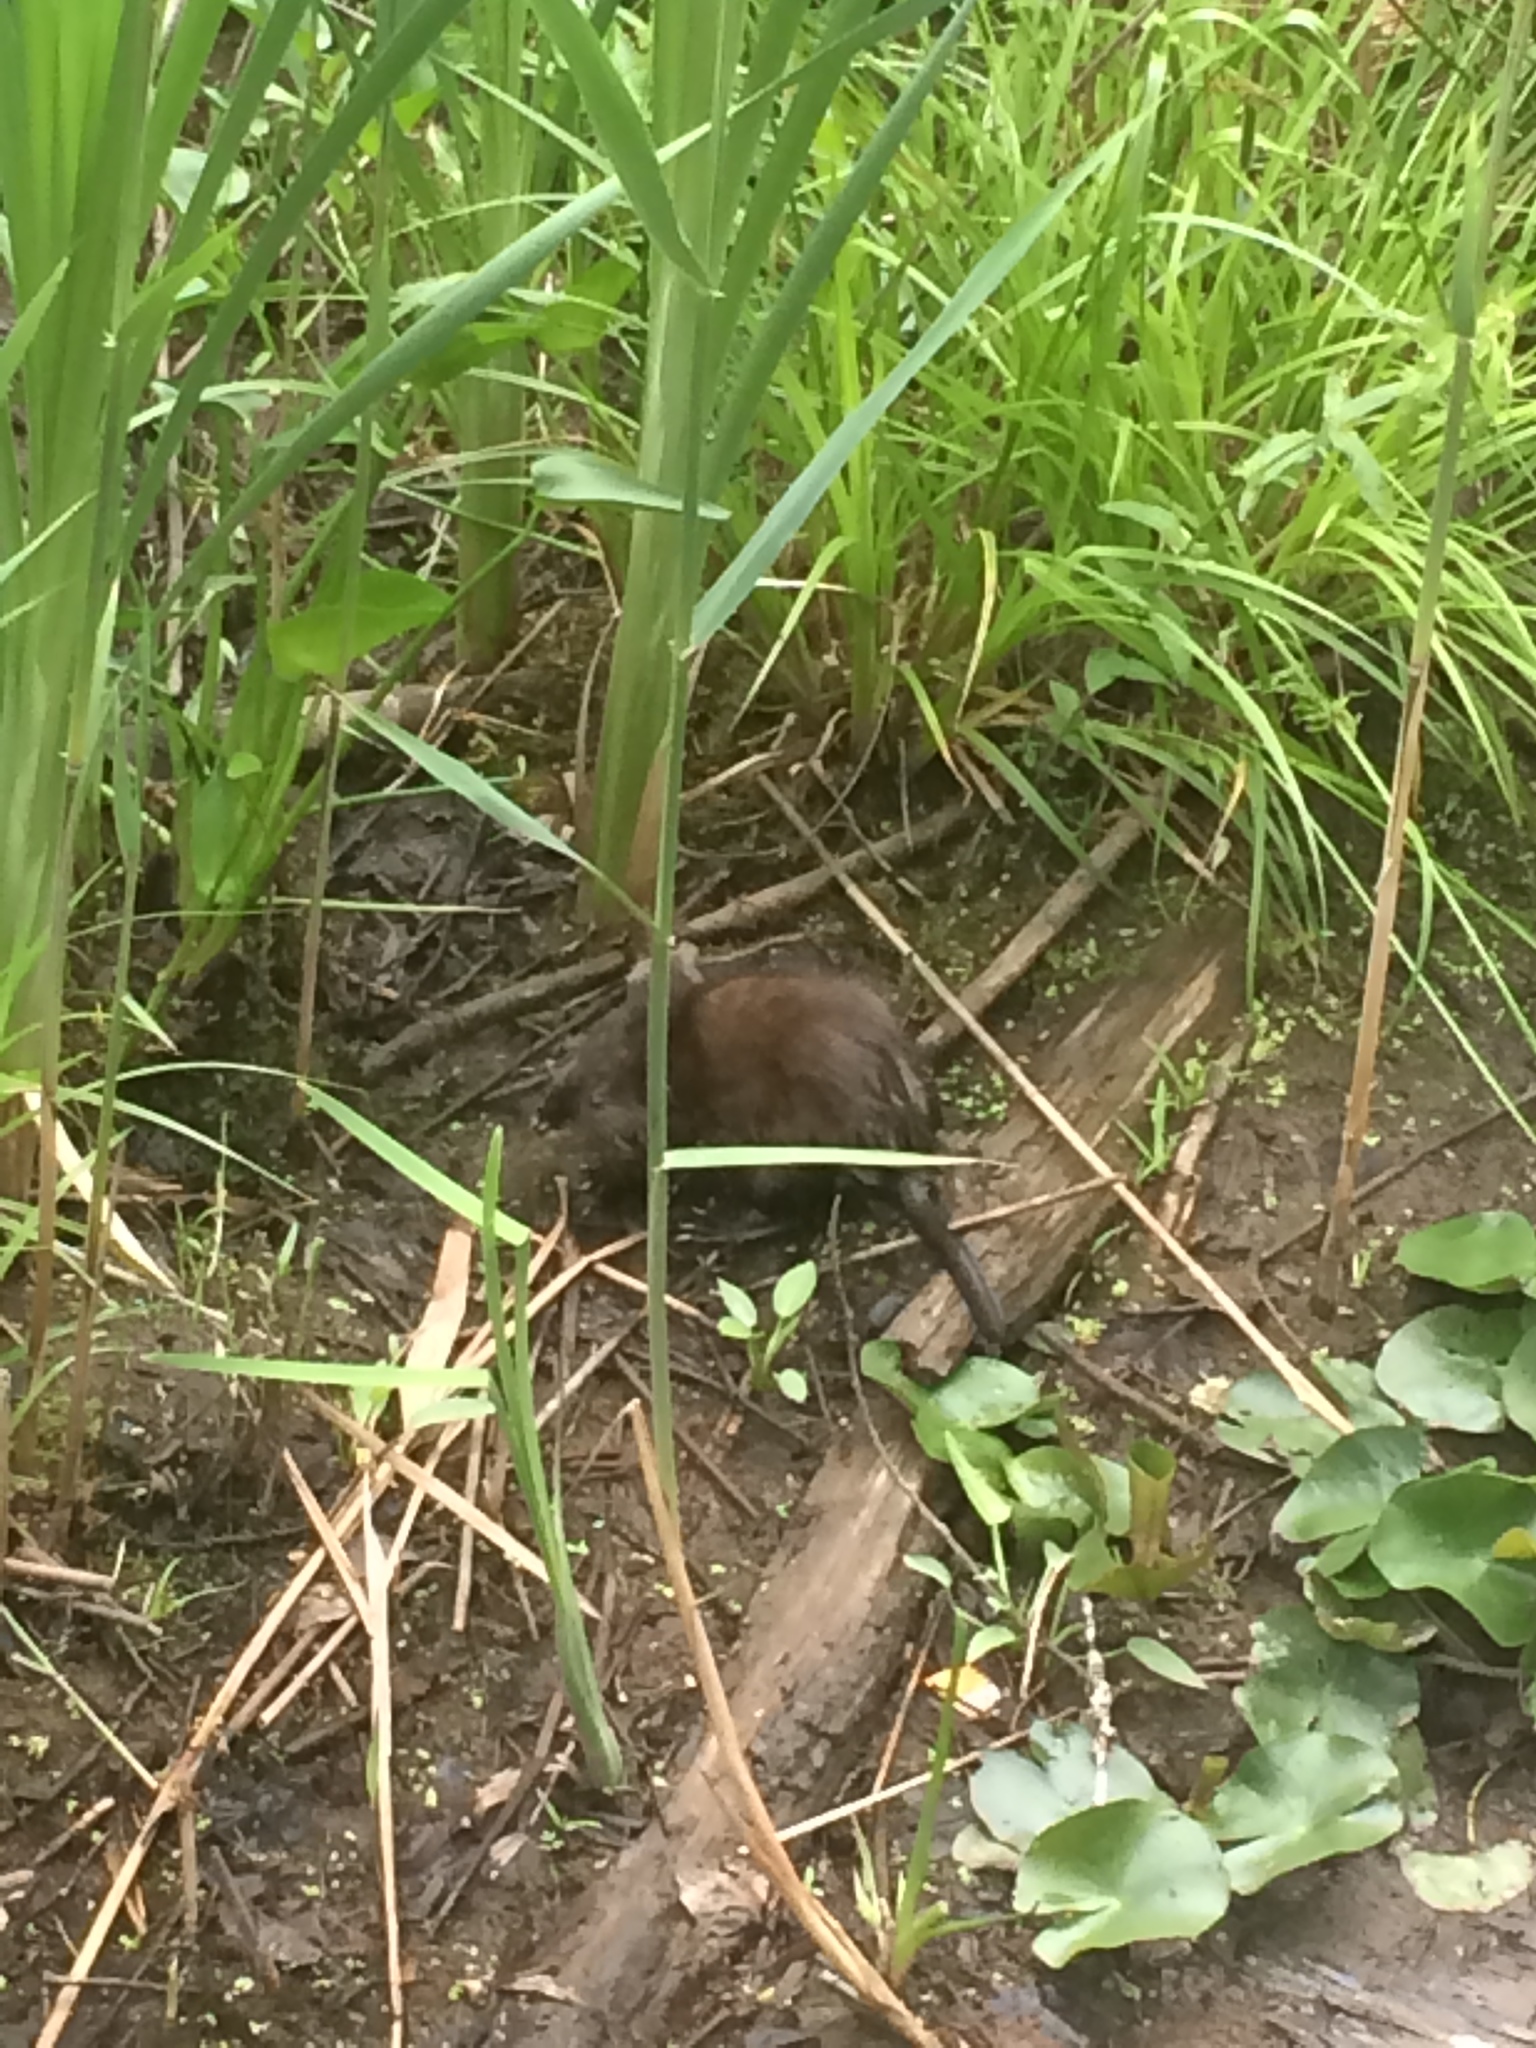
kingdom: Animalia
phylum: Chordata
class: Mammalia
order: Rodentia
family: Cricetidae
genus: Ondatra
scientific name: Ondatra zibethicus
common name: Muskrat
